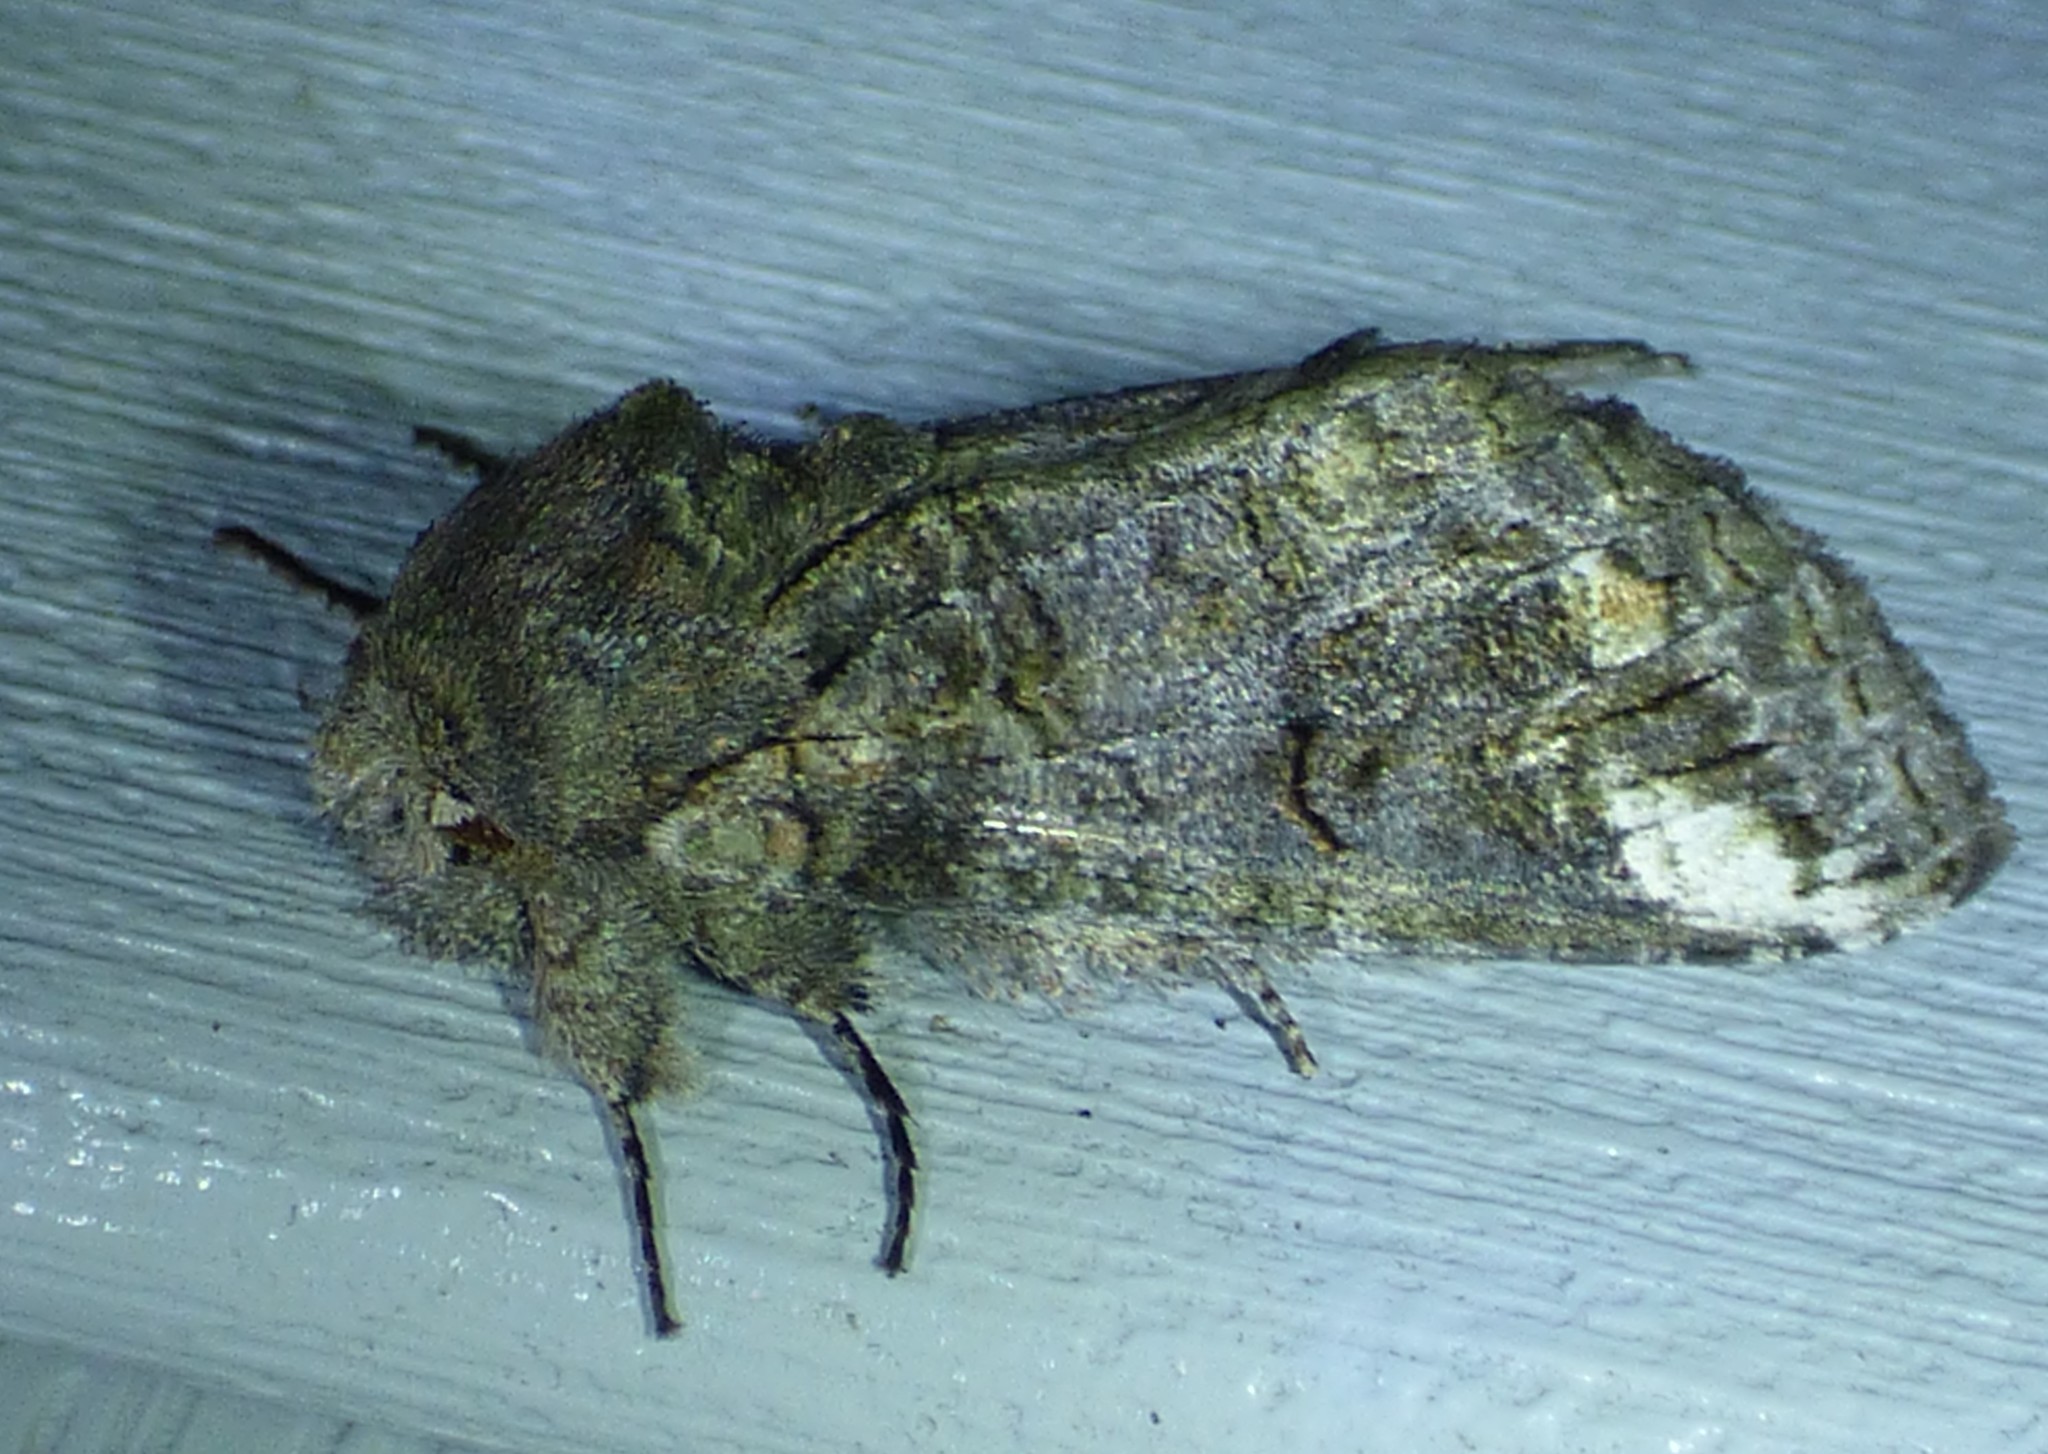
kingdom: Animalia
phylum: Arthropoda
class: Insecta
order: Lepidoptera
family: Notodontidae
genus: Heterocampa
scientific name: Heterocampa obliqua
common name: Oblique heterocampa
